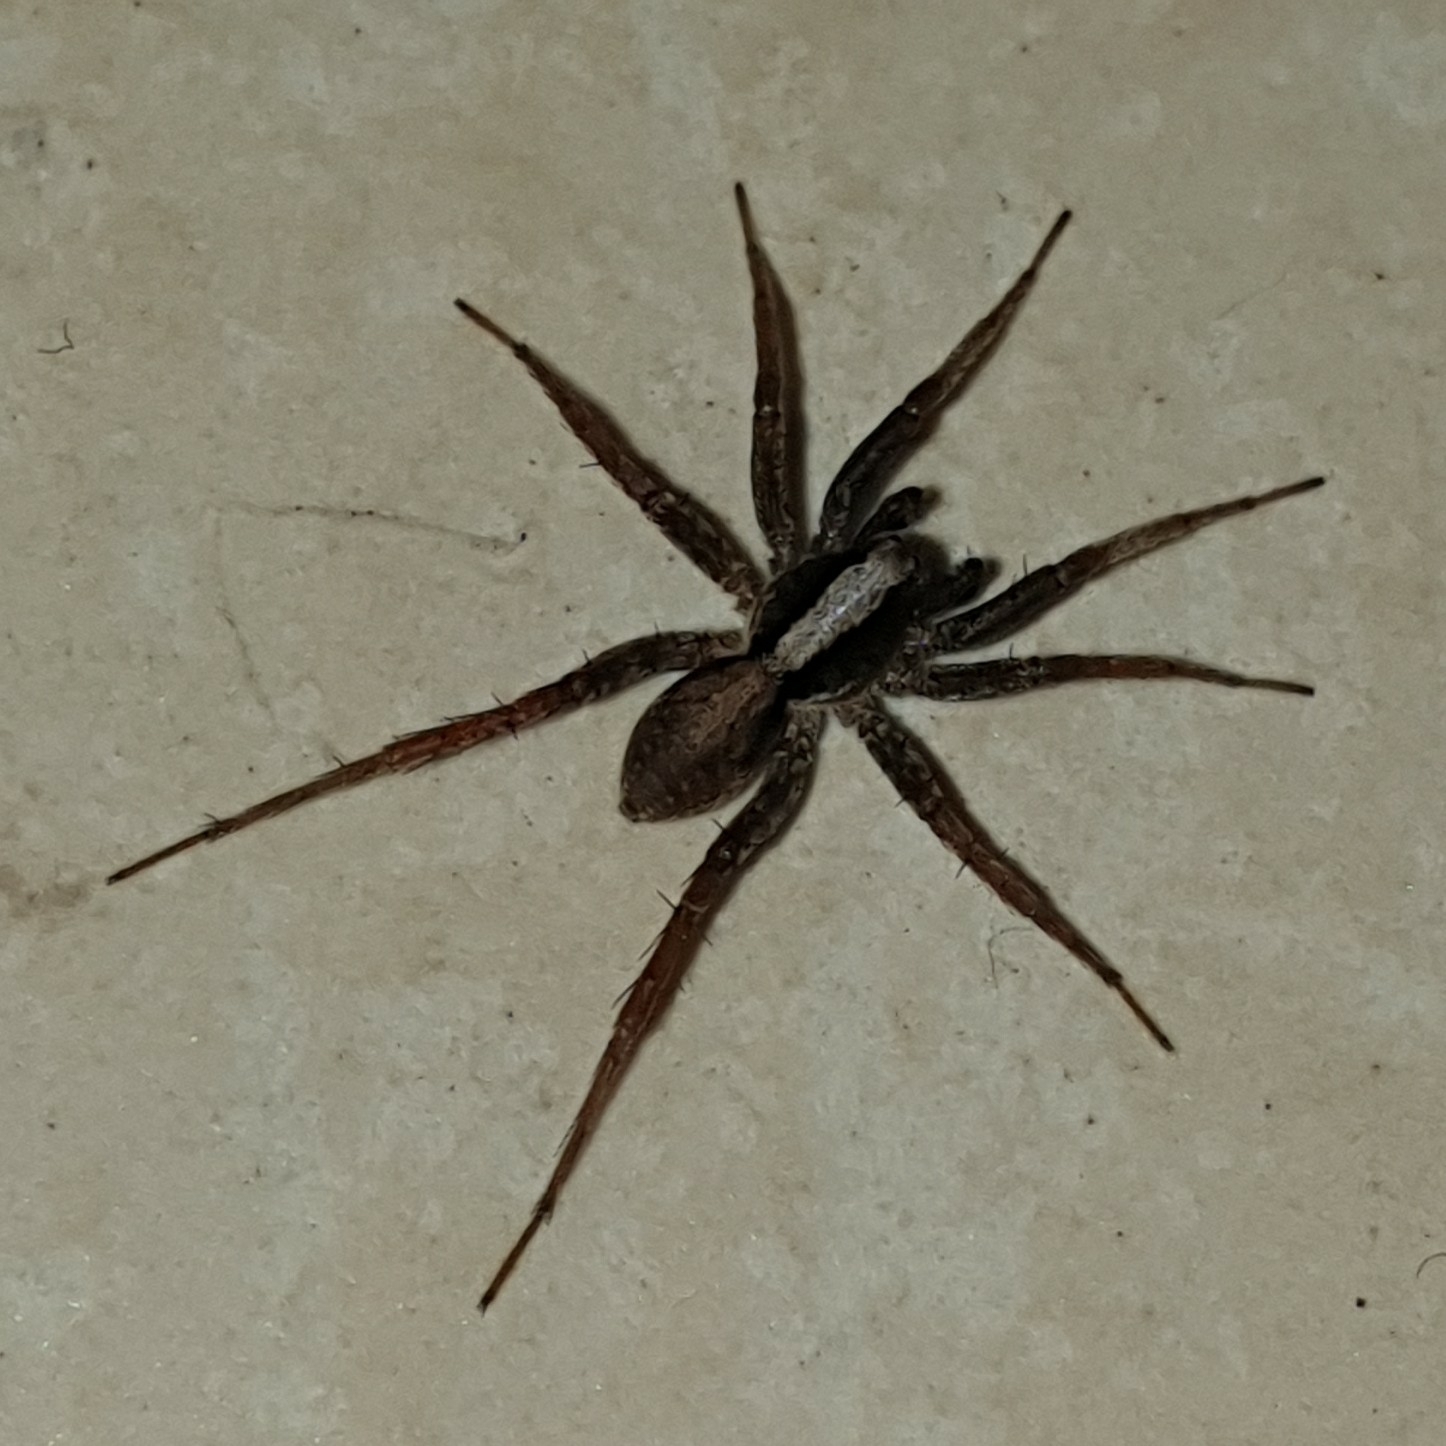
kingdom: Animalia
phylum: Arthropoda
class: Arachnida
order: Araneae
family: Lycosidae
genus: Xerolycosa
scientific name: Xerolycosa nemoralis
